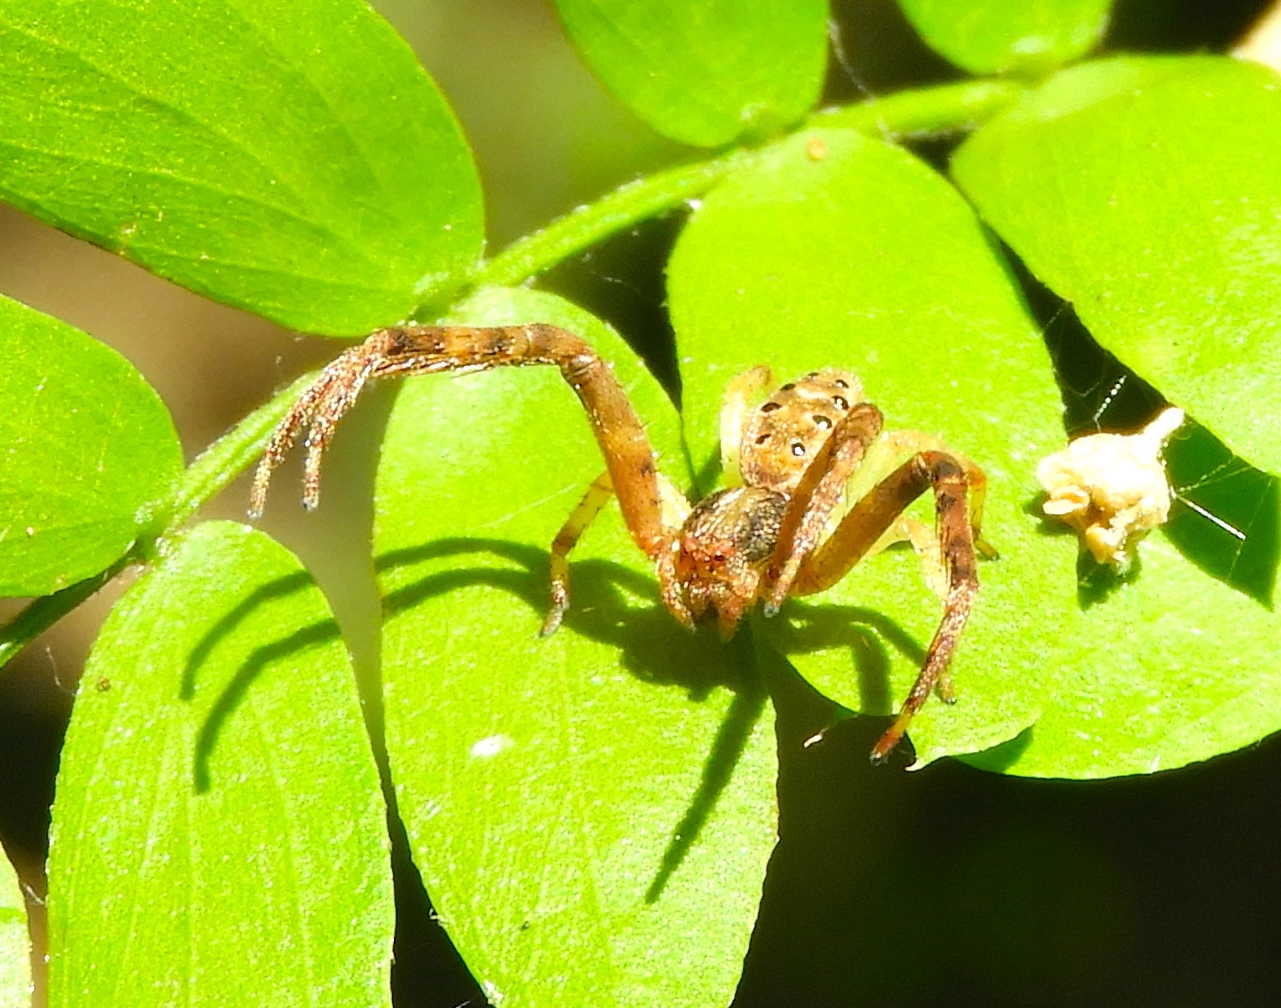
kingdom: Animalia
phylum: Arthropoda
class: Arachnida
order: Araneae
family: Thomisidae
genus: Isaloides
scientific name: Isaloides
